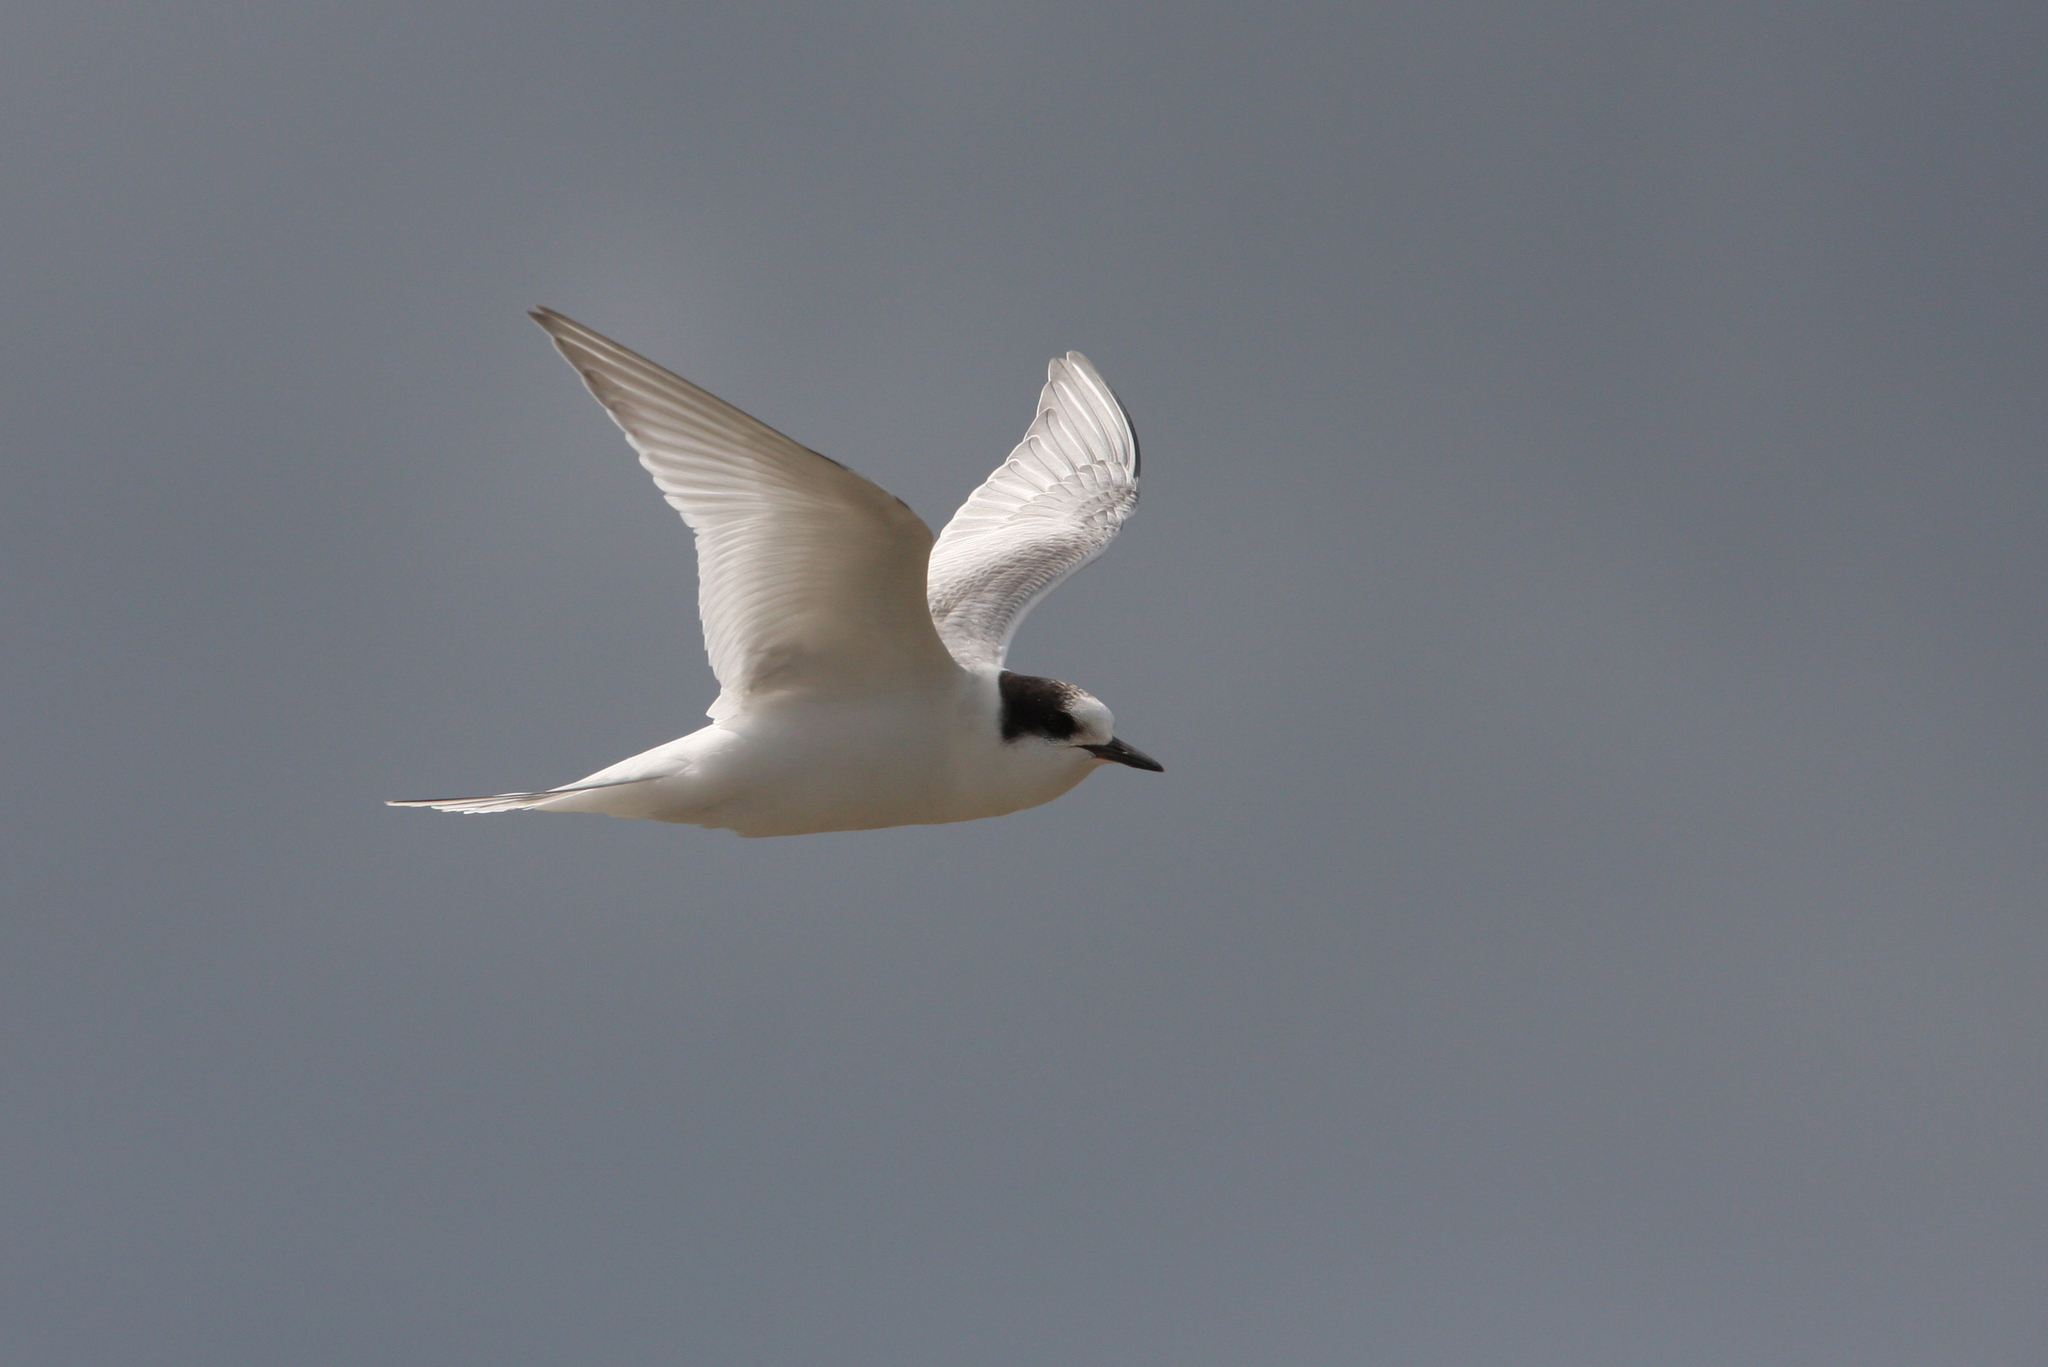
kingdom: Animalia
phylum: Chordata
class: Aves
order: Charadriiformes
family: Laridae
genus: Sterna
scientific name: Sterna paradisaea
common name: Arctic tern
